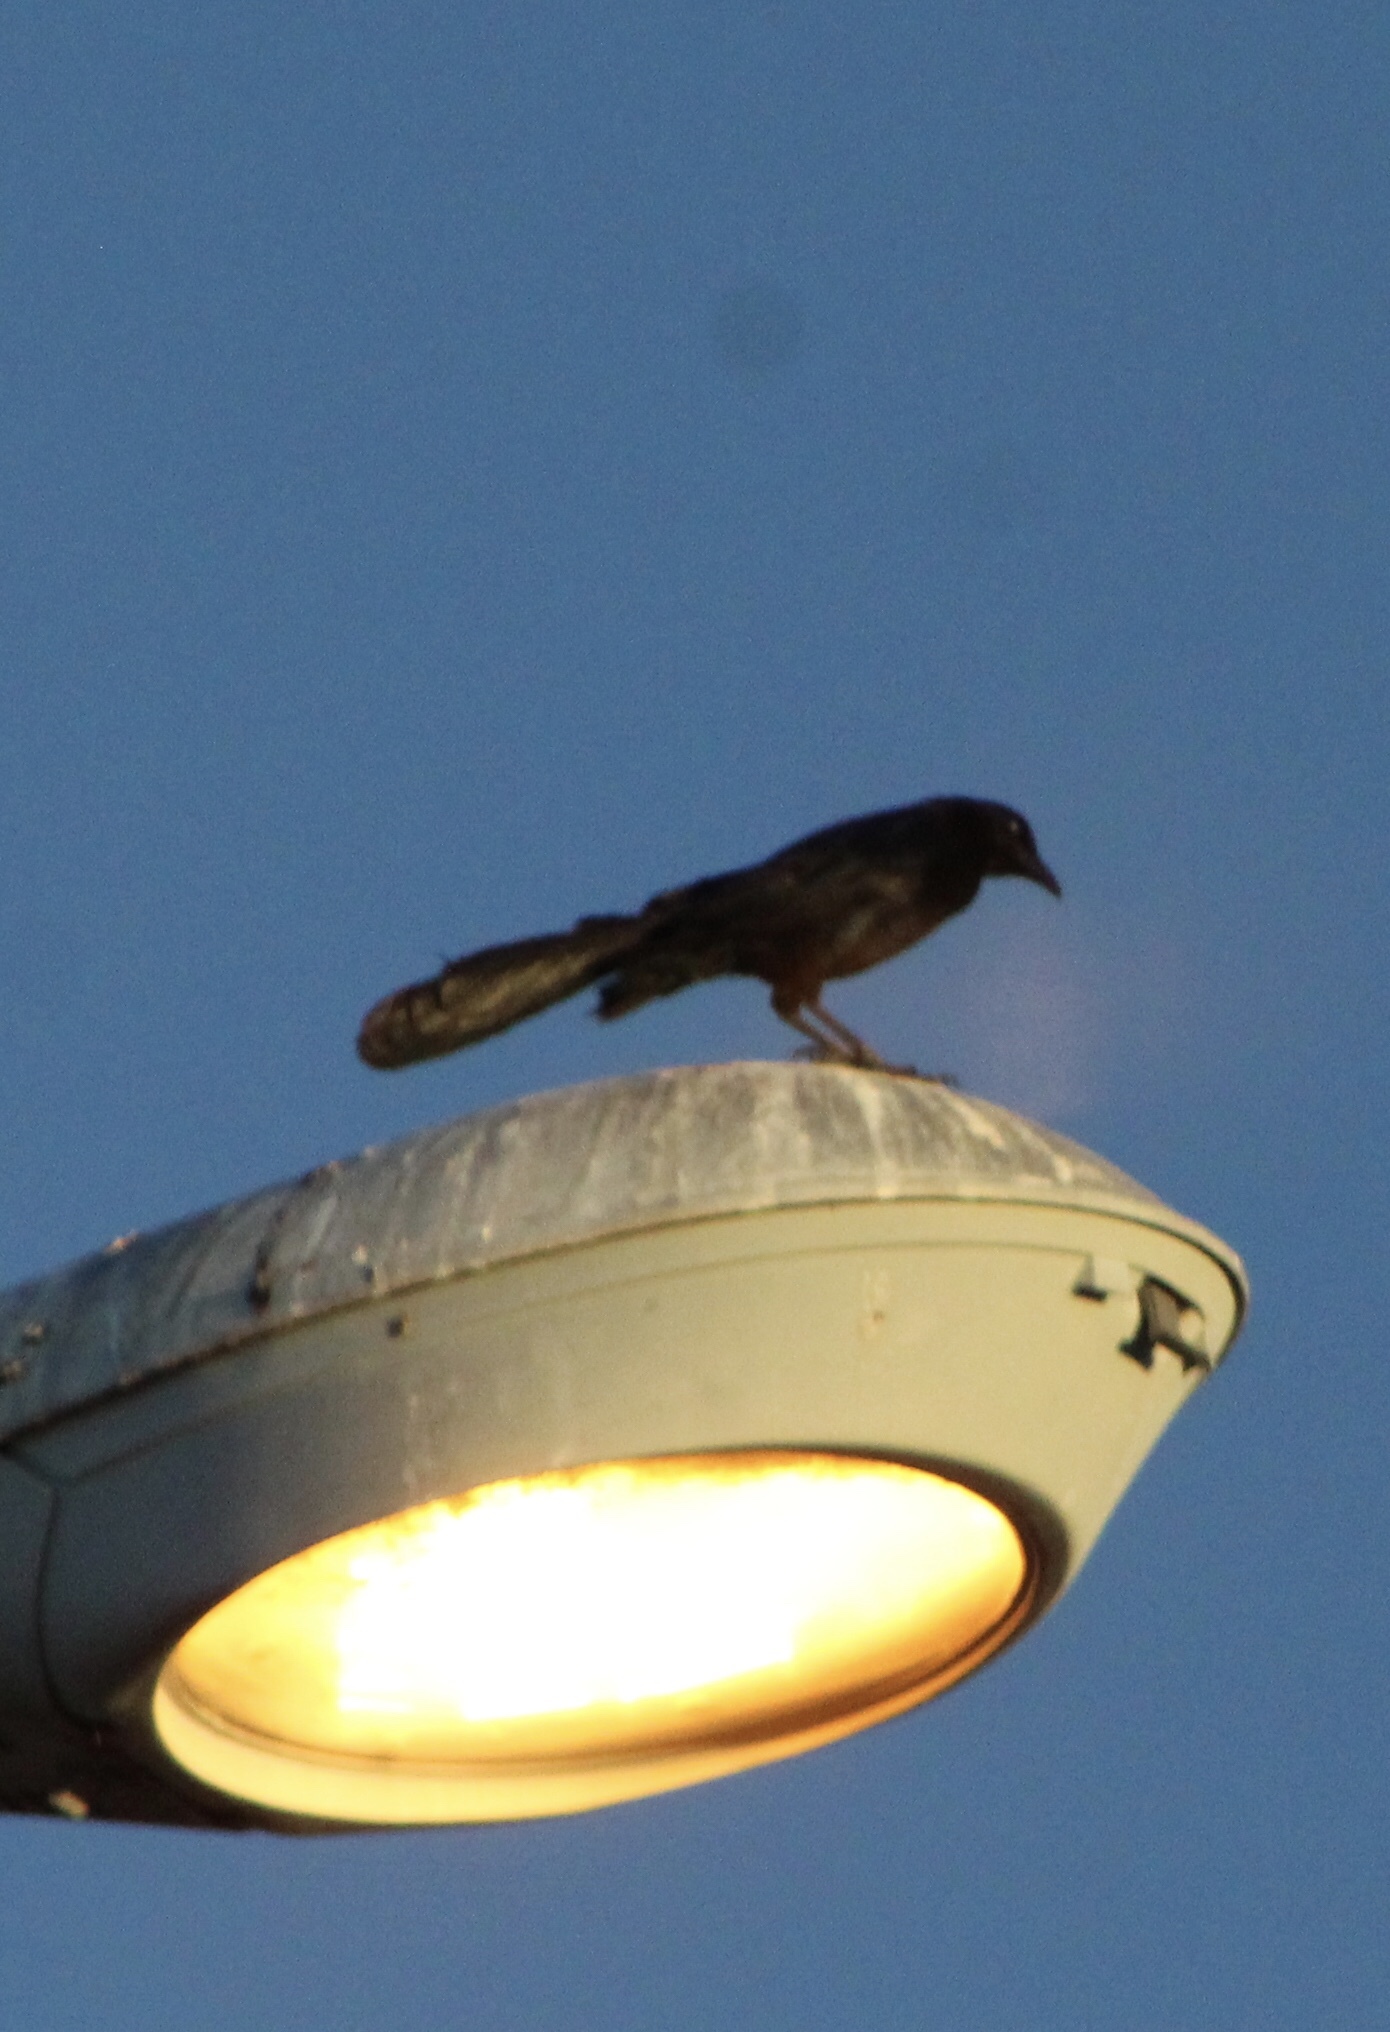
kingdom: Animalia
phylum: Chordata
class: Aves
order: Passeriformes
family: Icteridae
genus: Quiscalus
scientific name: Quiscalus mexicanus
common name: Great-tailed grackle
